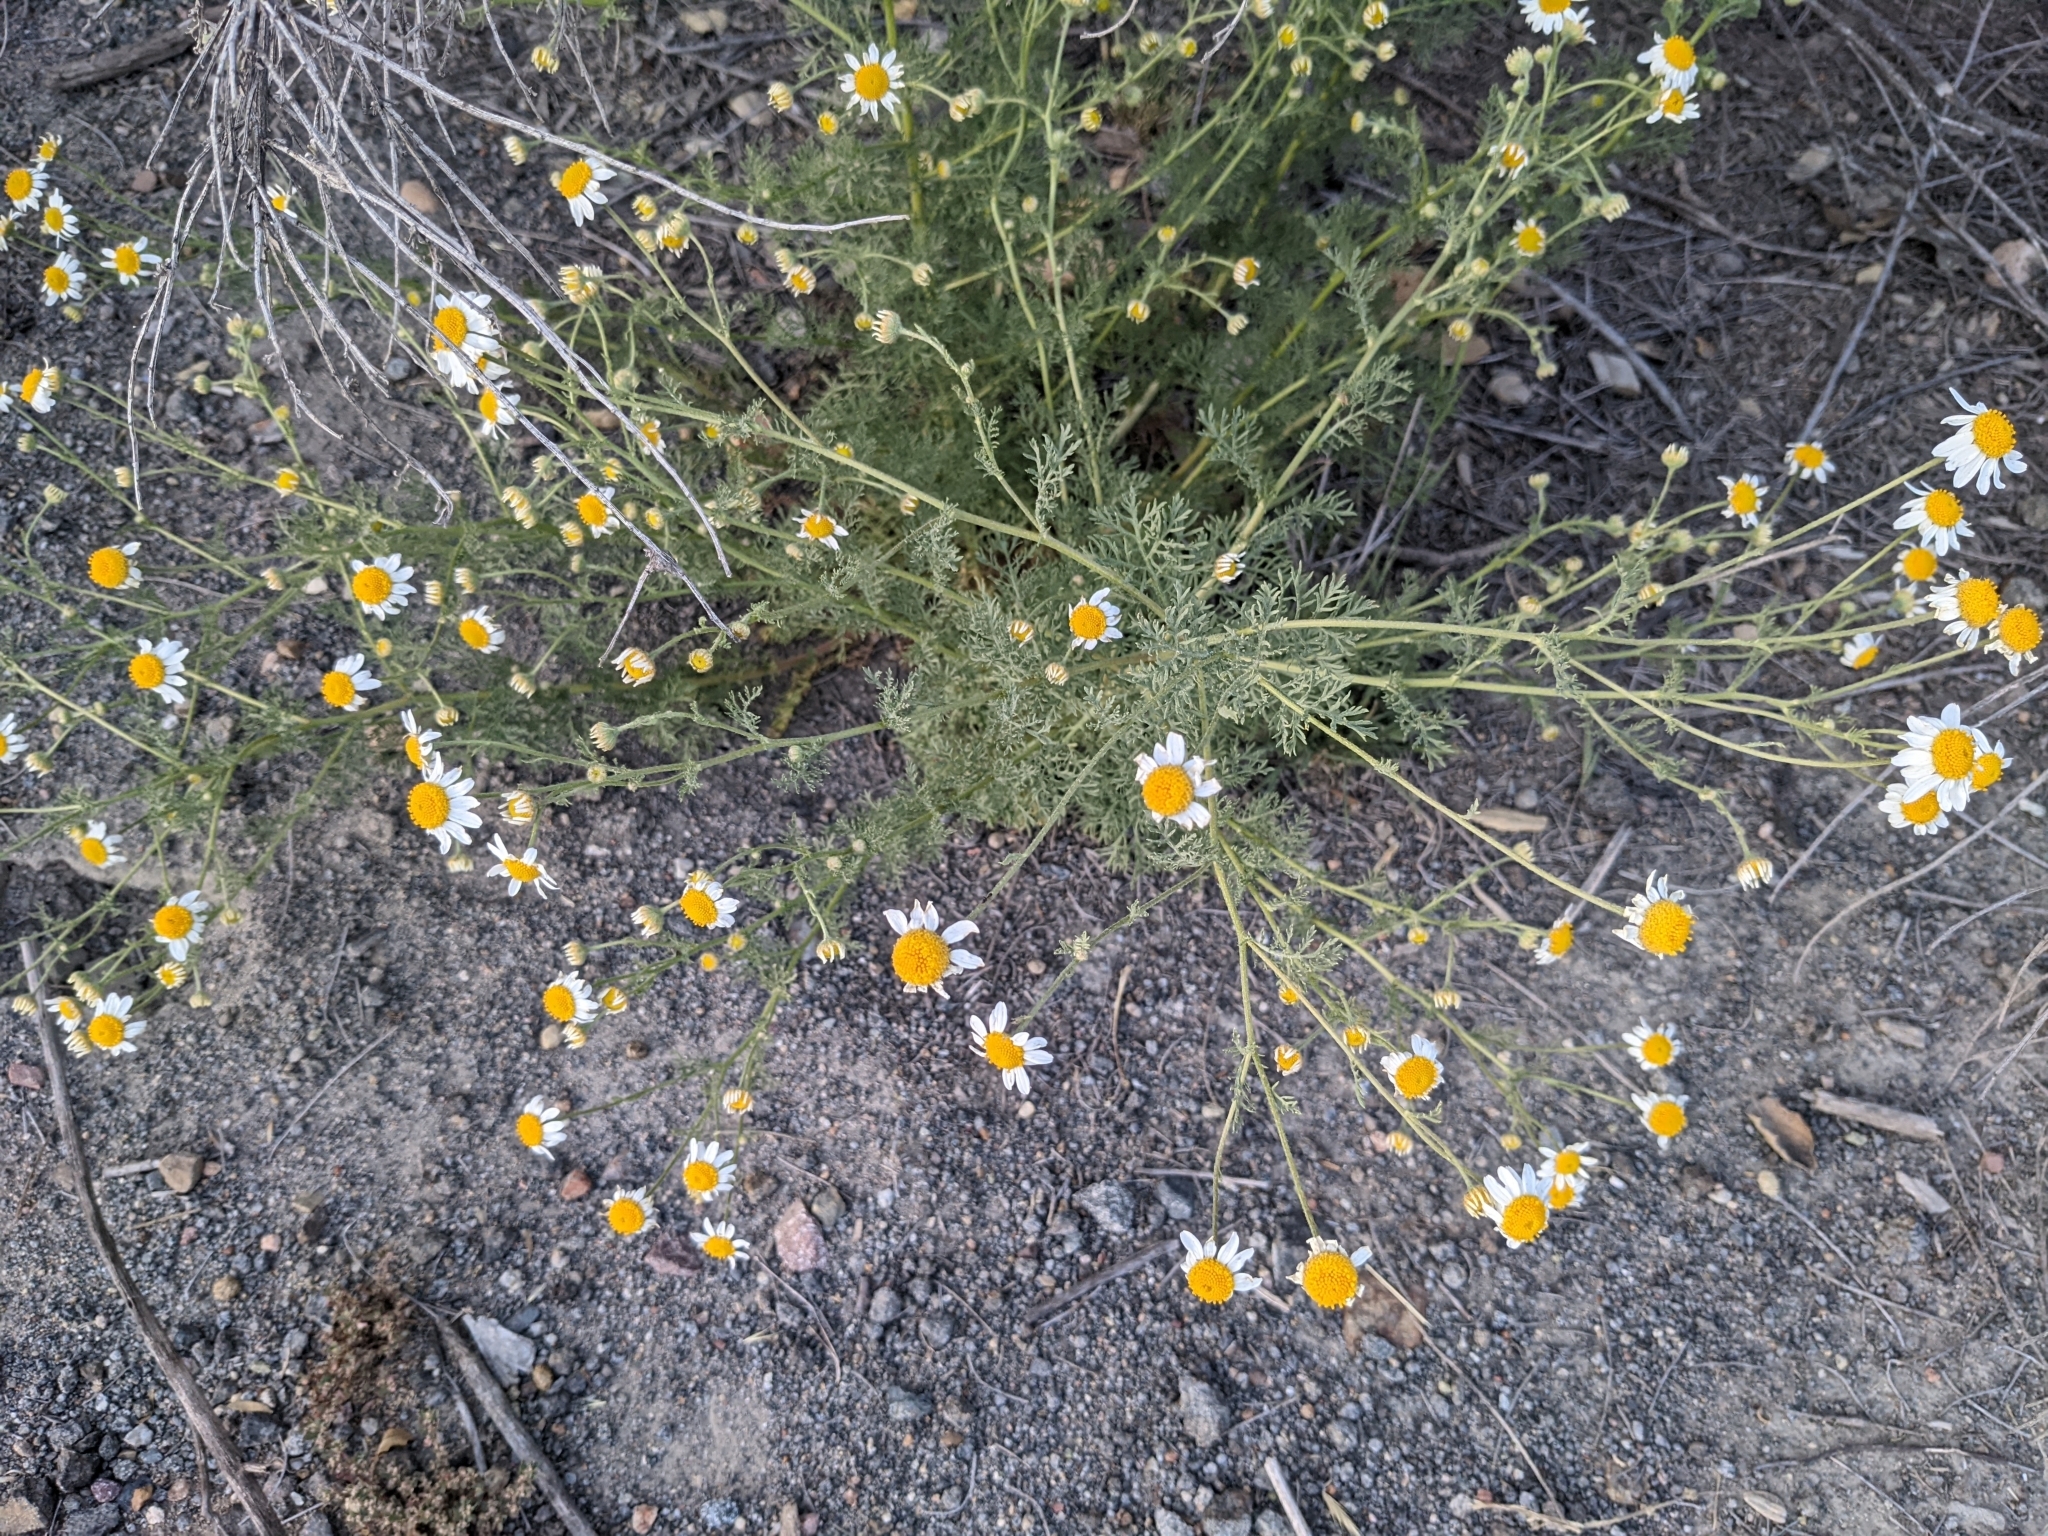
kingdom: Plantae
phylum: Tracheophyta
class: Magnoliopsida
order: Asterales
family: Asteraceae
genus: Anthemis
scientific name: Anthemis cotula
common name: Stinking chamomile
